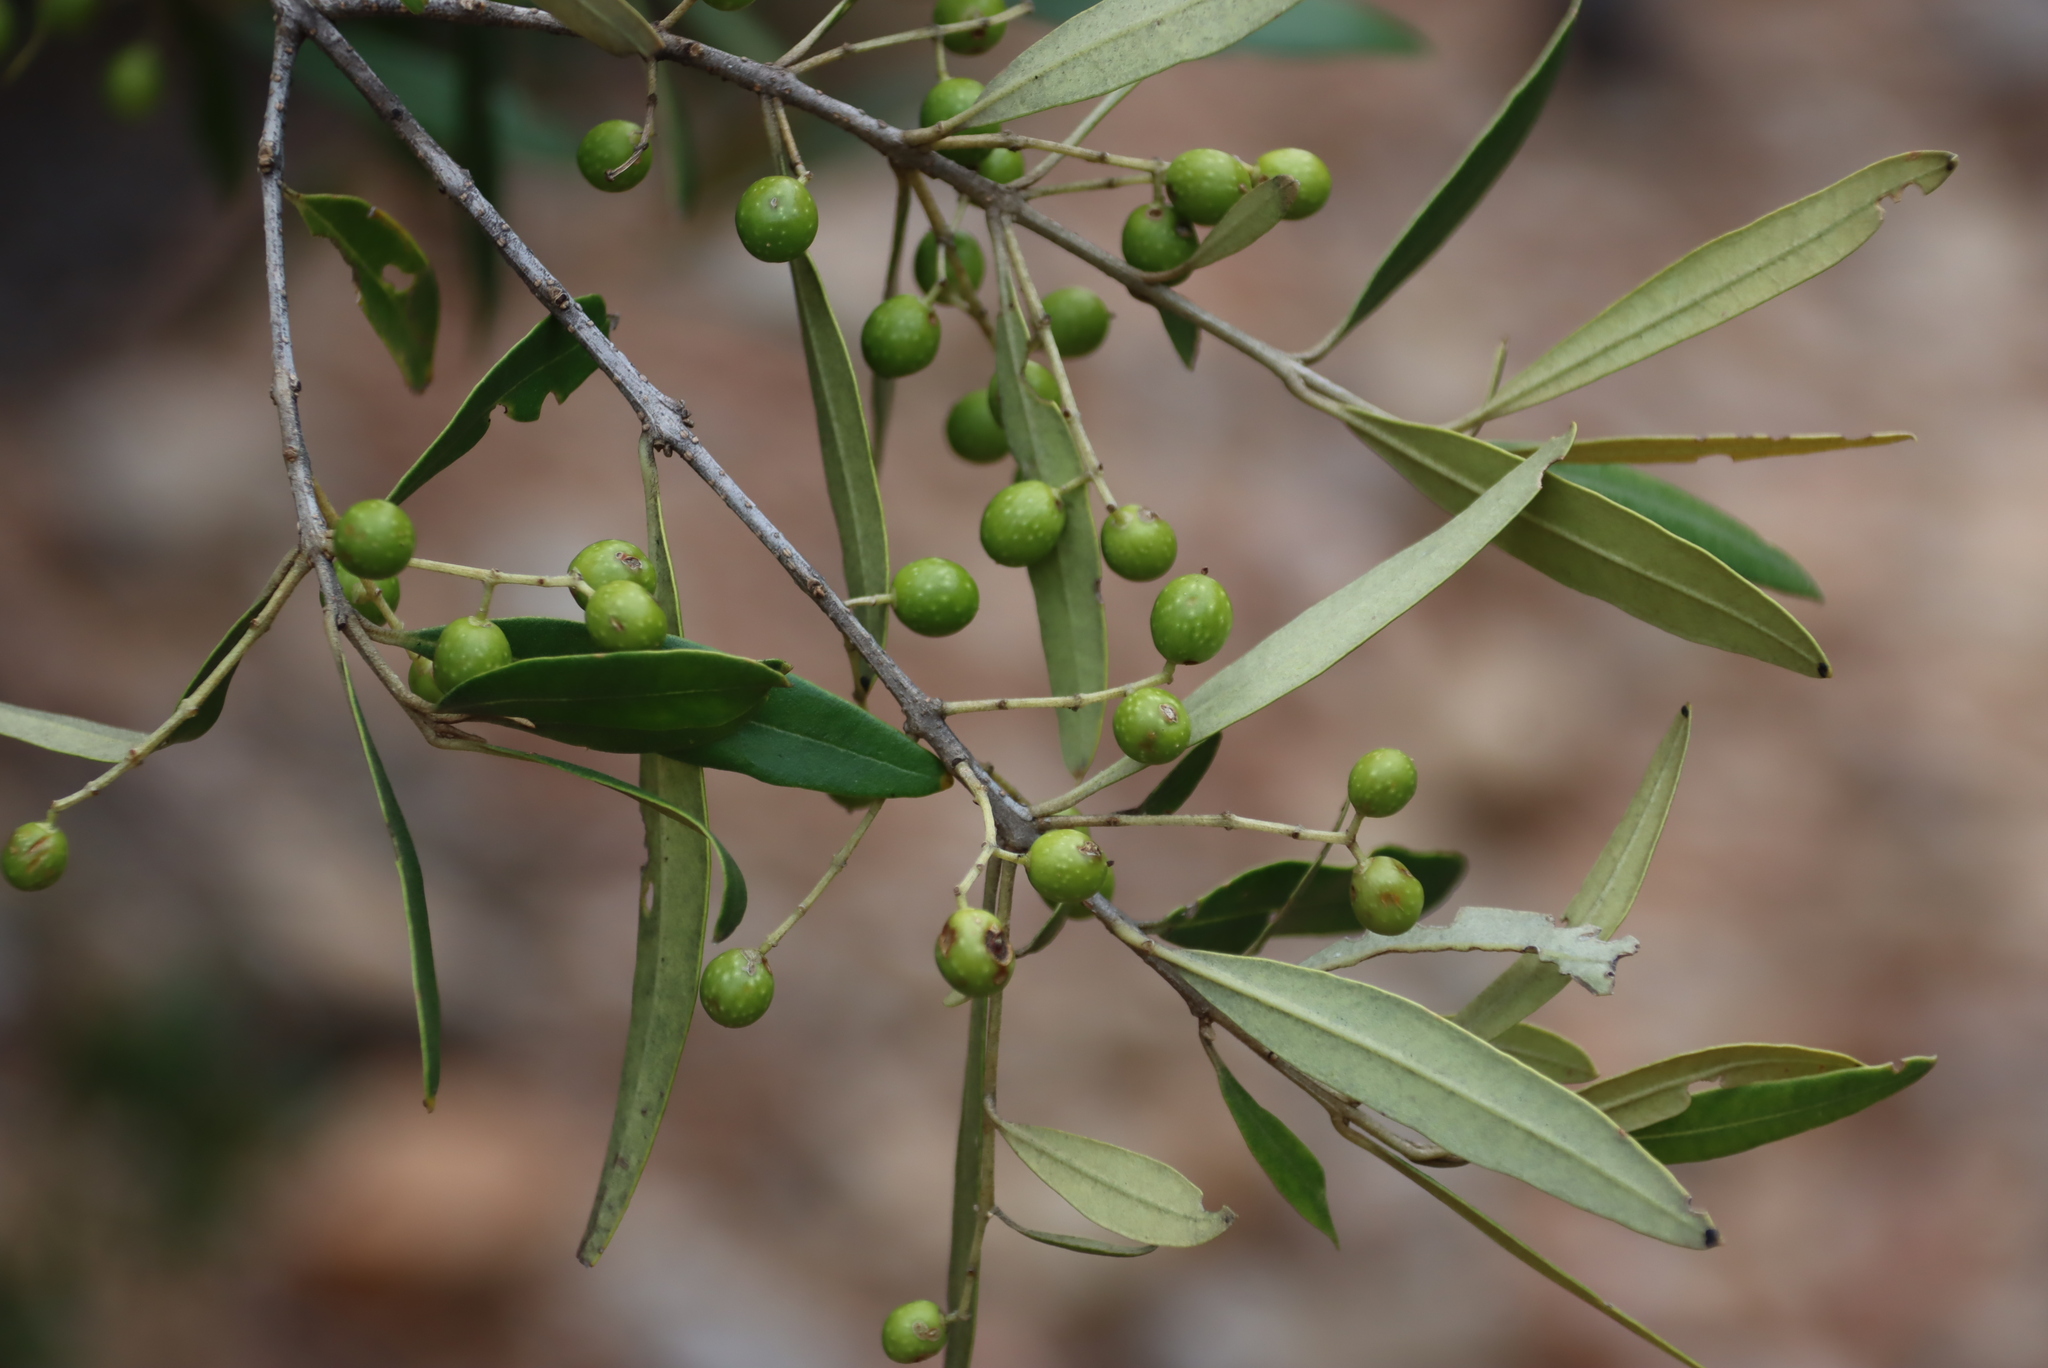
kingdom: Plantae
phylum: Tracheophyta
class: Magnoliopsida
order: Lamiales
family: Oleaceae
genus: Olea
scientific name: Olea europaea
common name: Olive
